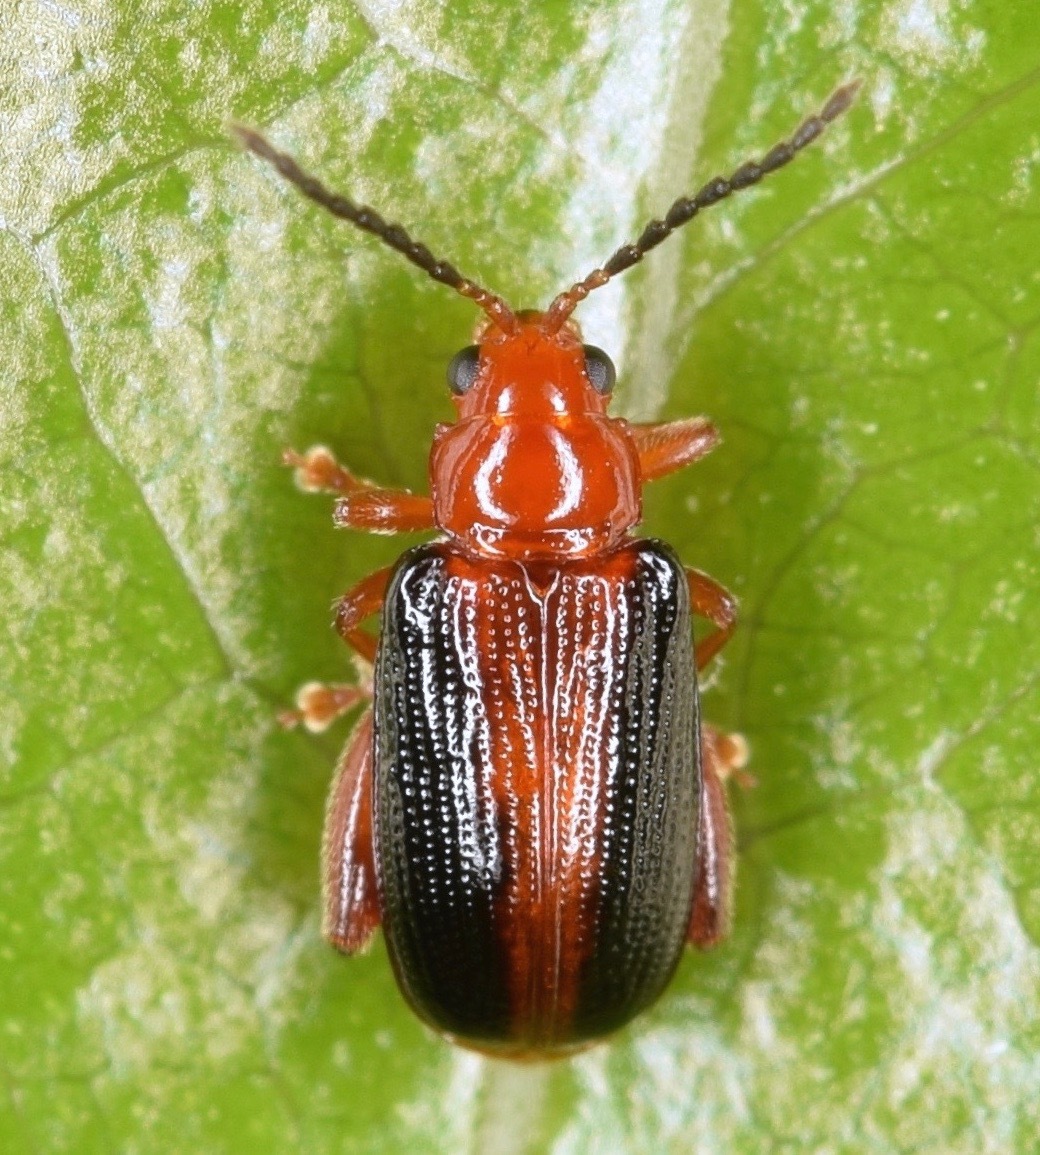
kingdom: Animalia
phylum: Arthropoda
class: Insecta
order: Coleoptera
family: Chrysomelidae
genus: Pachyonychus
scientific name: Pachyonychus paradoxus
